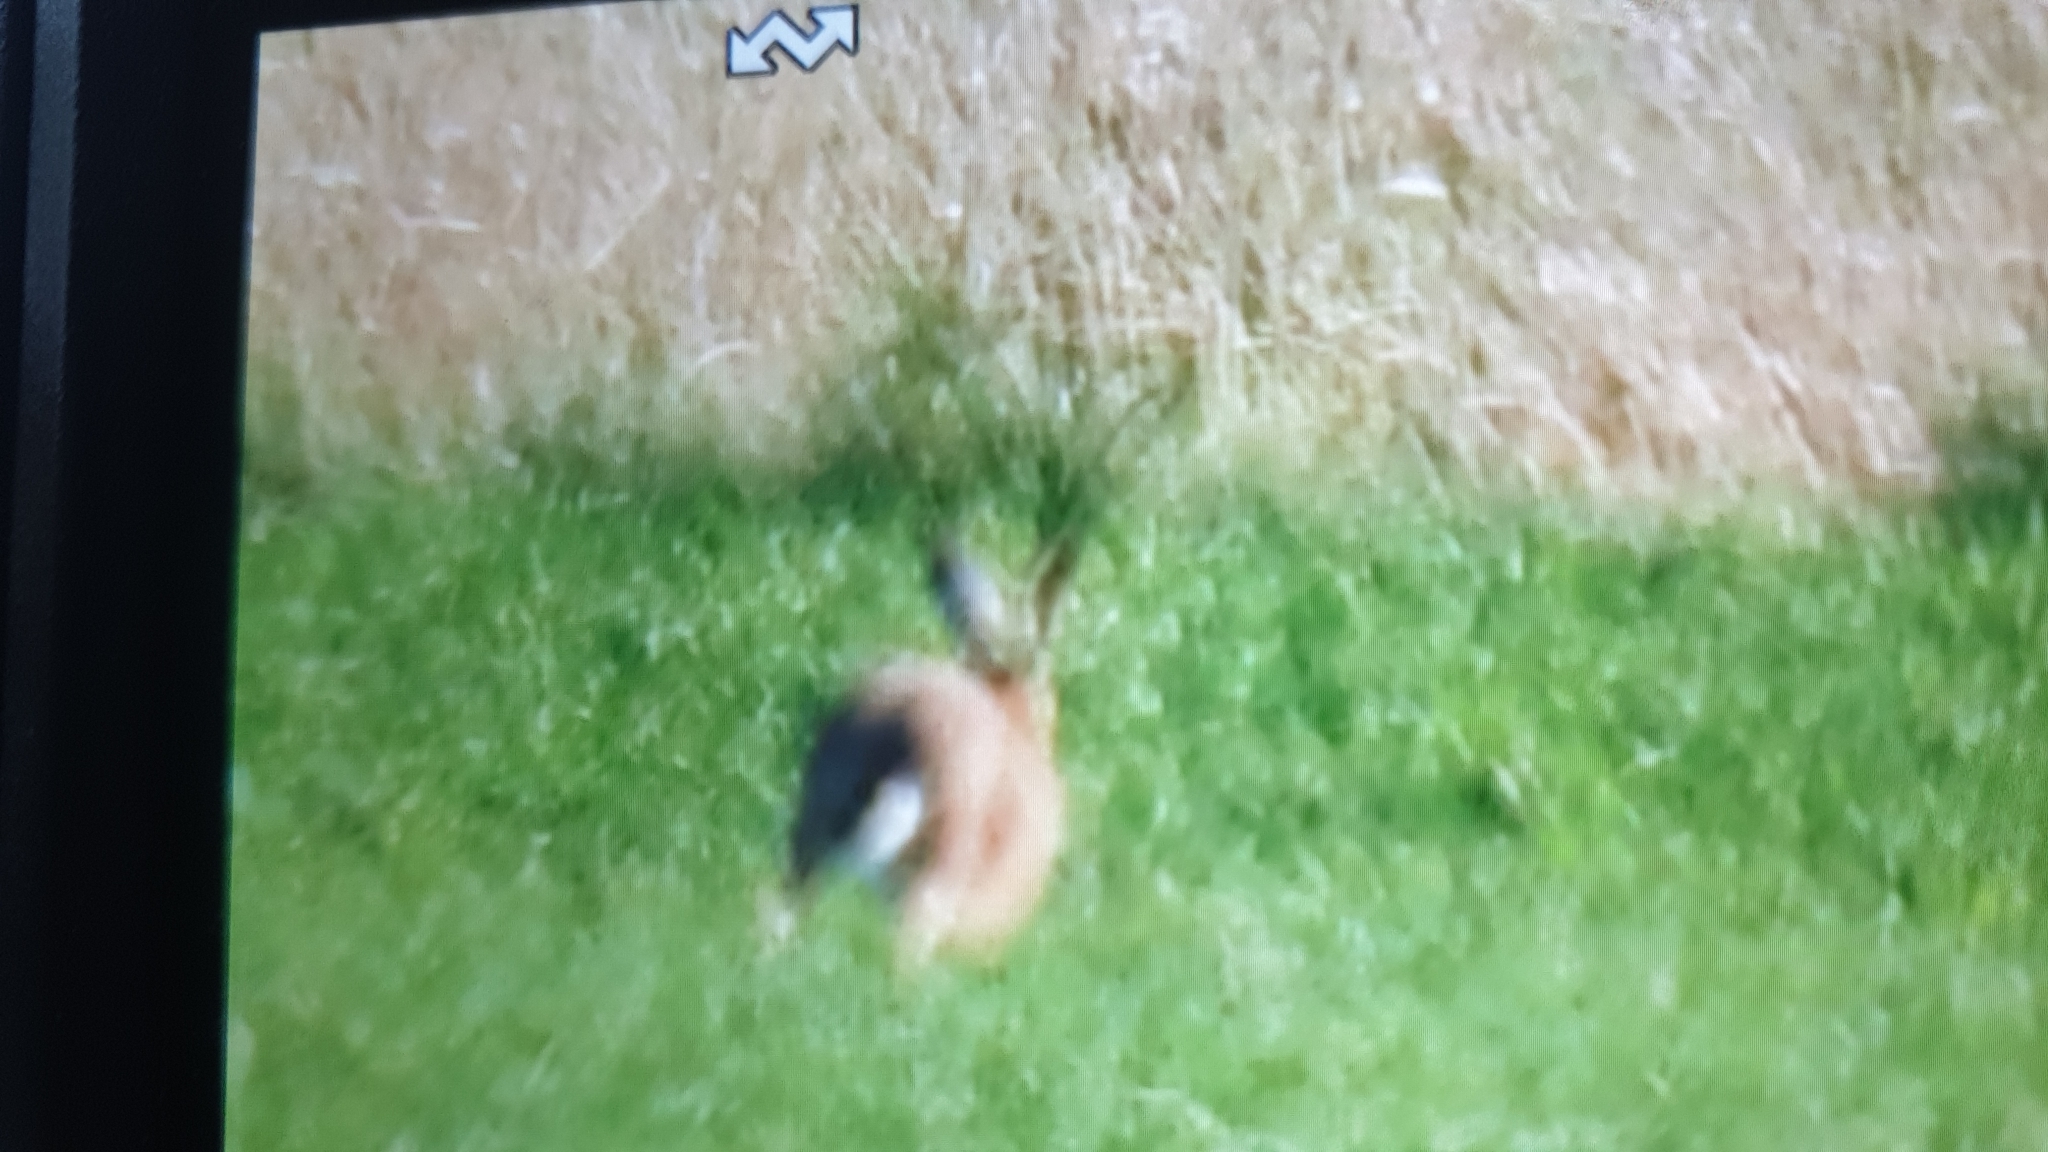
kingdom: Animalia
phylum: Chordata
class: Mammalia
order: Lagomorpha
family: Leporidae
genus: Lepus
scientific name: Lepus europaeus
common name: European hare
